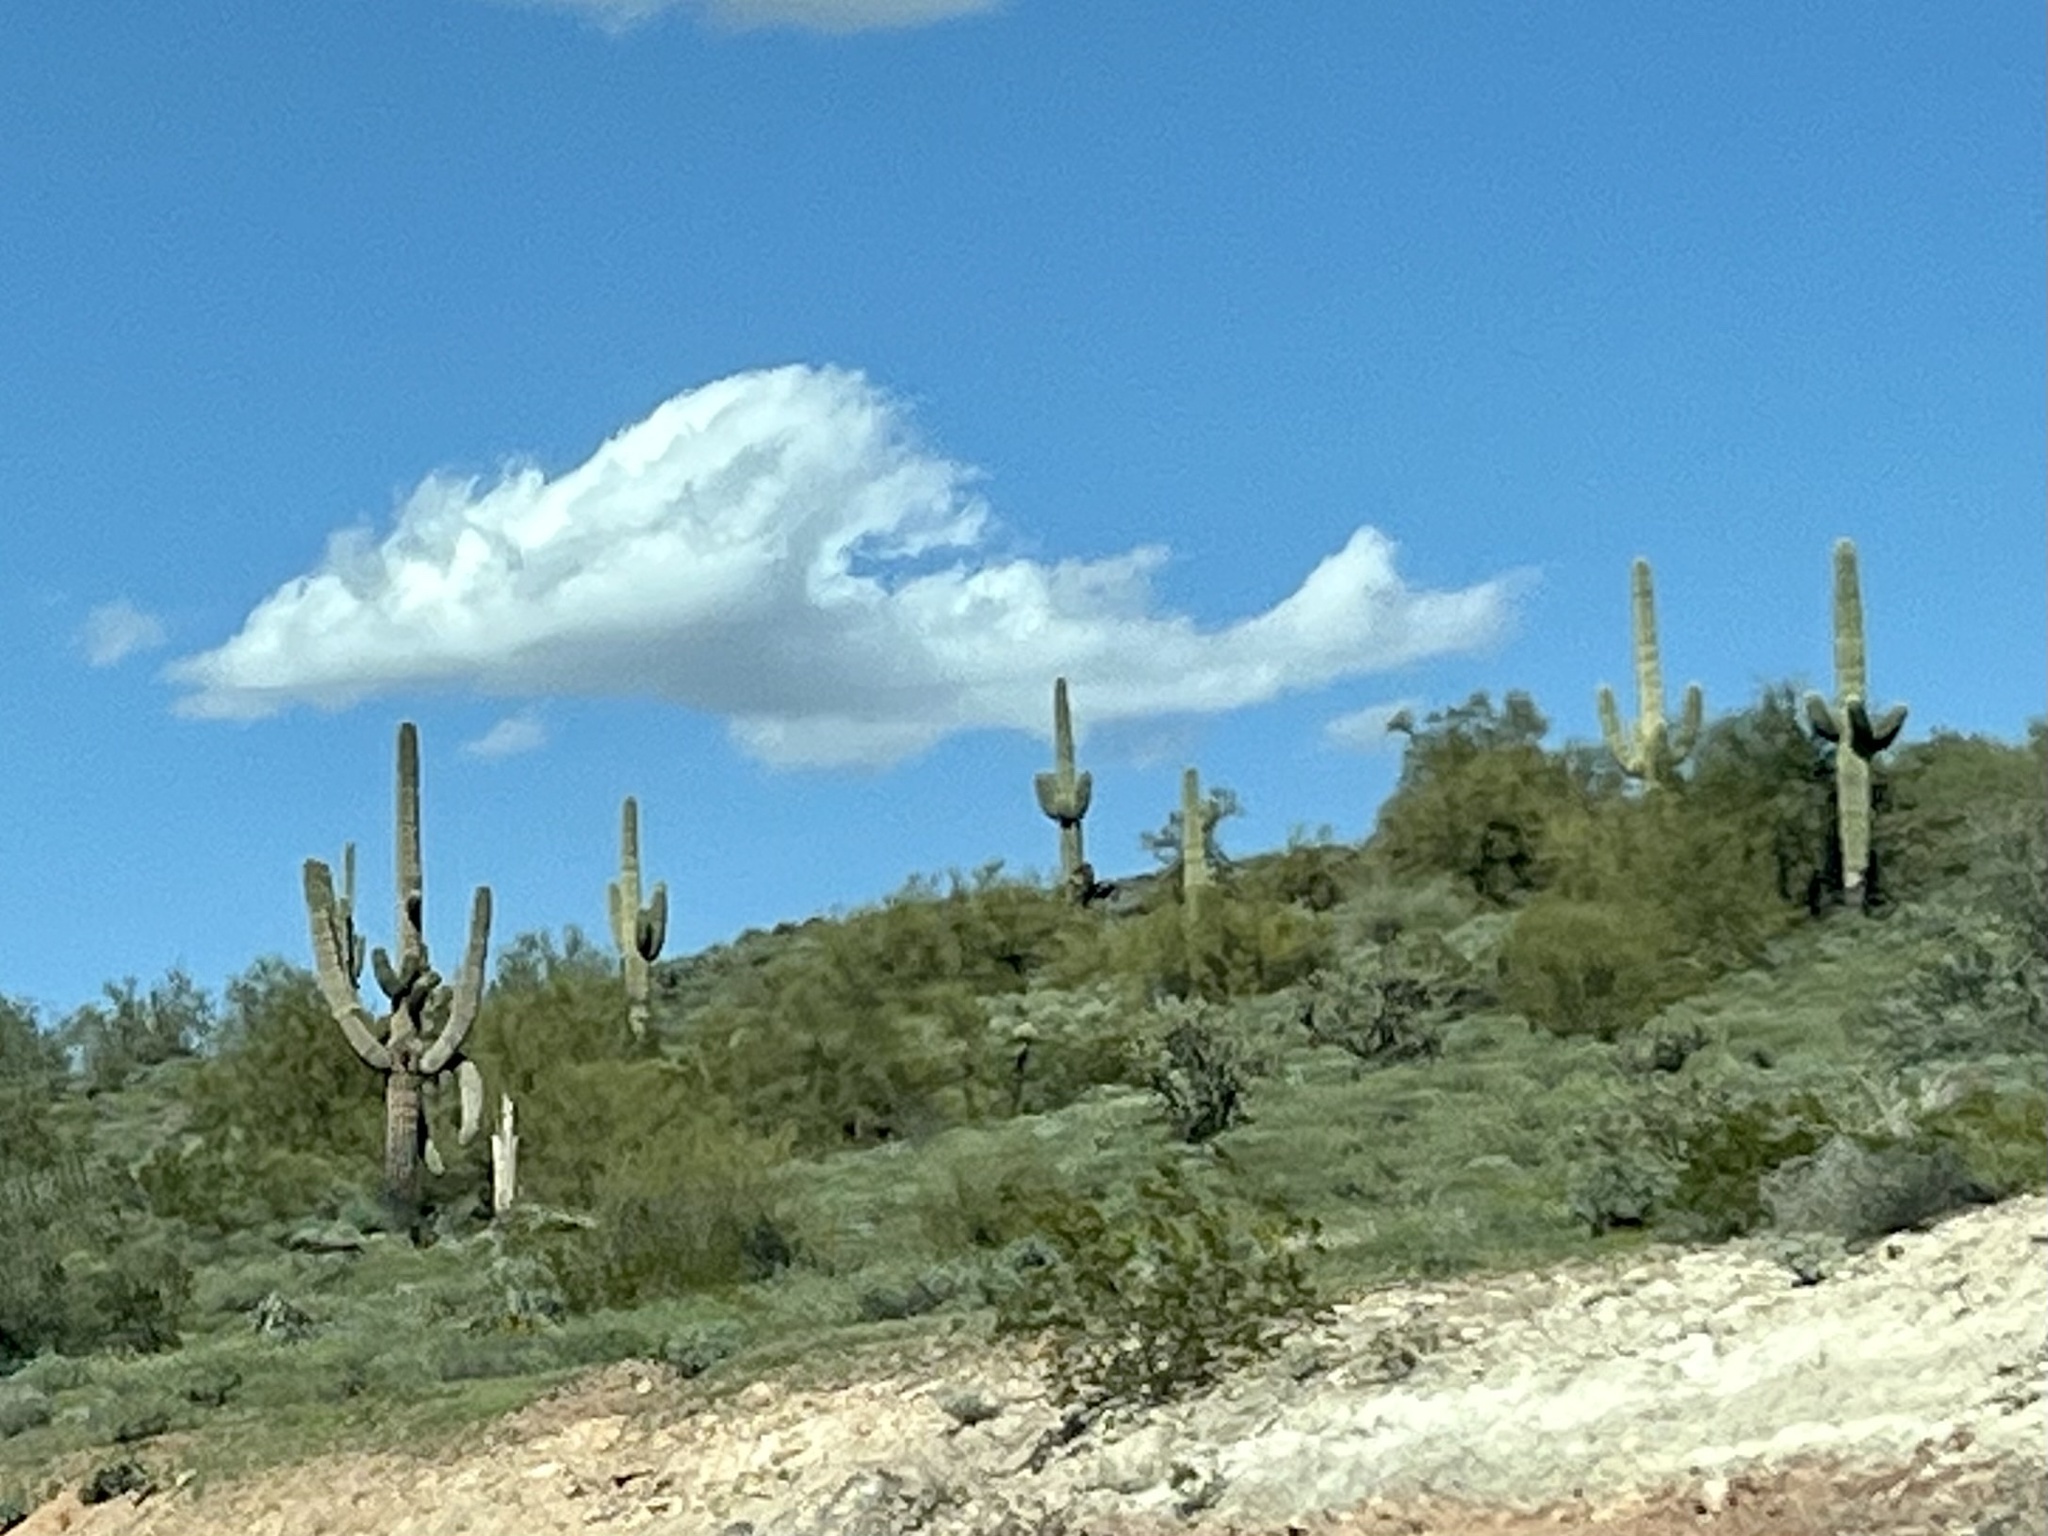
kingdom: Plantae
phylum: Tracheophyta
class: Magnoliopsida
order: Caryophyllales
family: Cactaceae
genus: Carnegiea
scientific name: Carnegiea gigantea
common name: Saguaro
